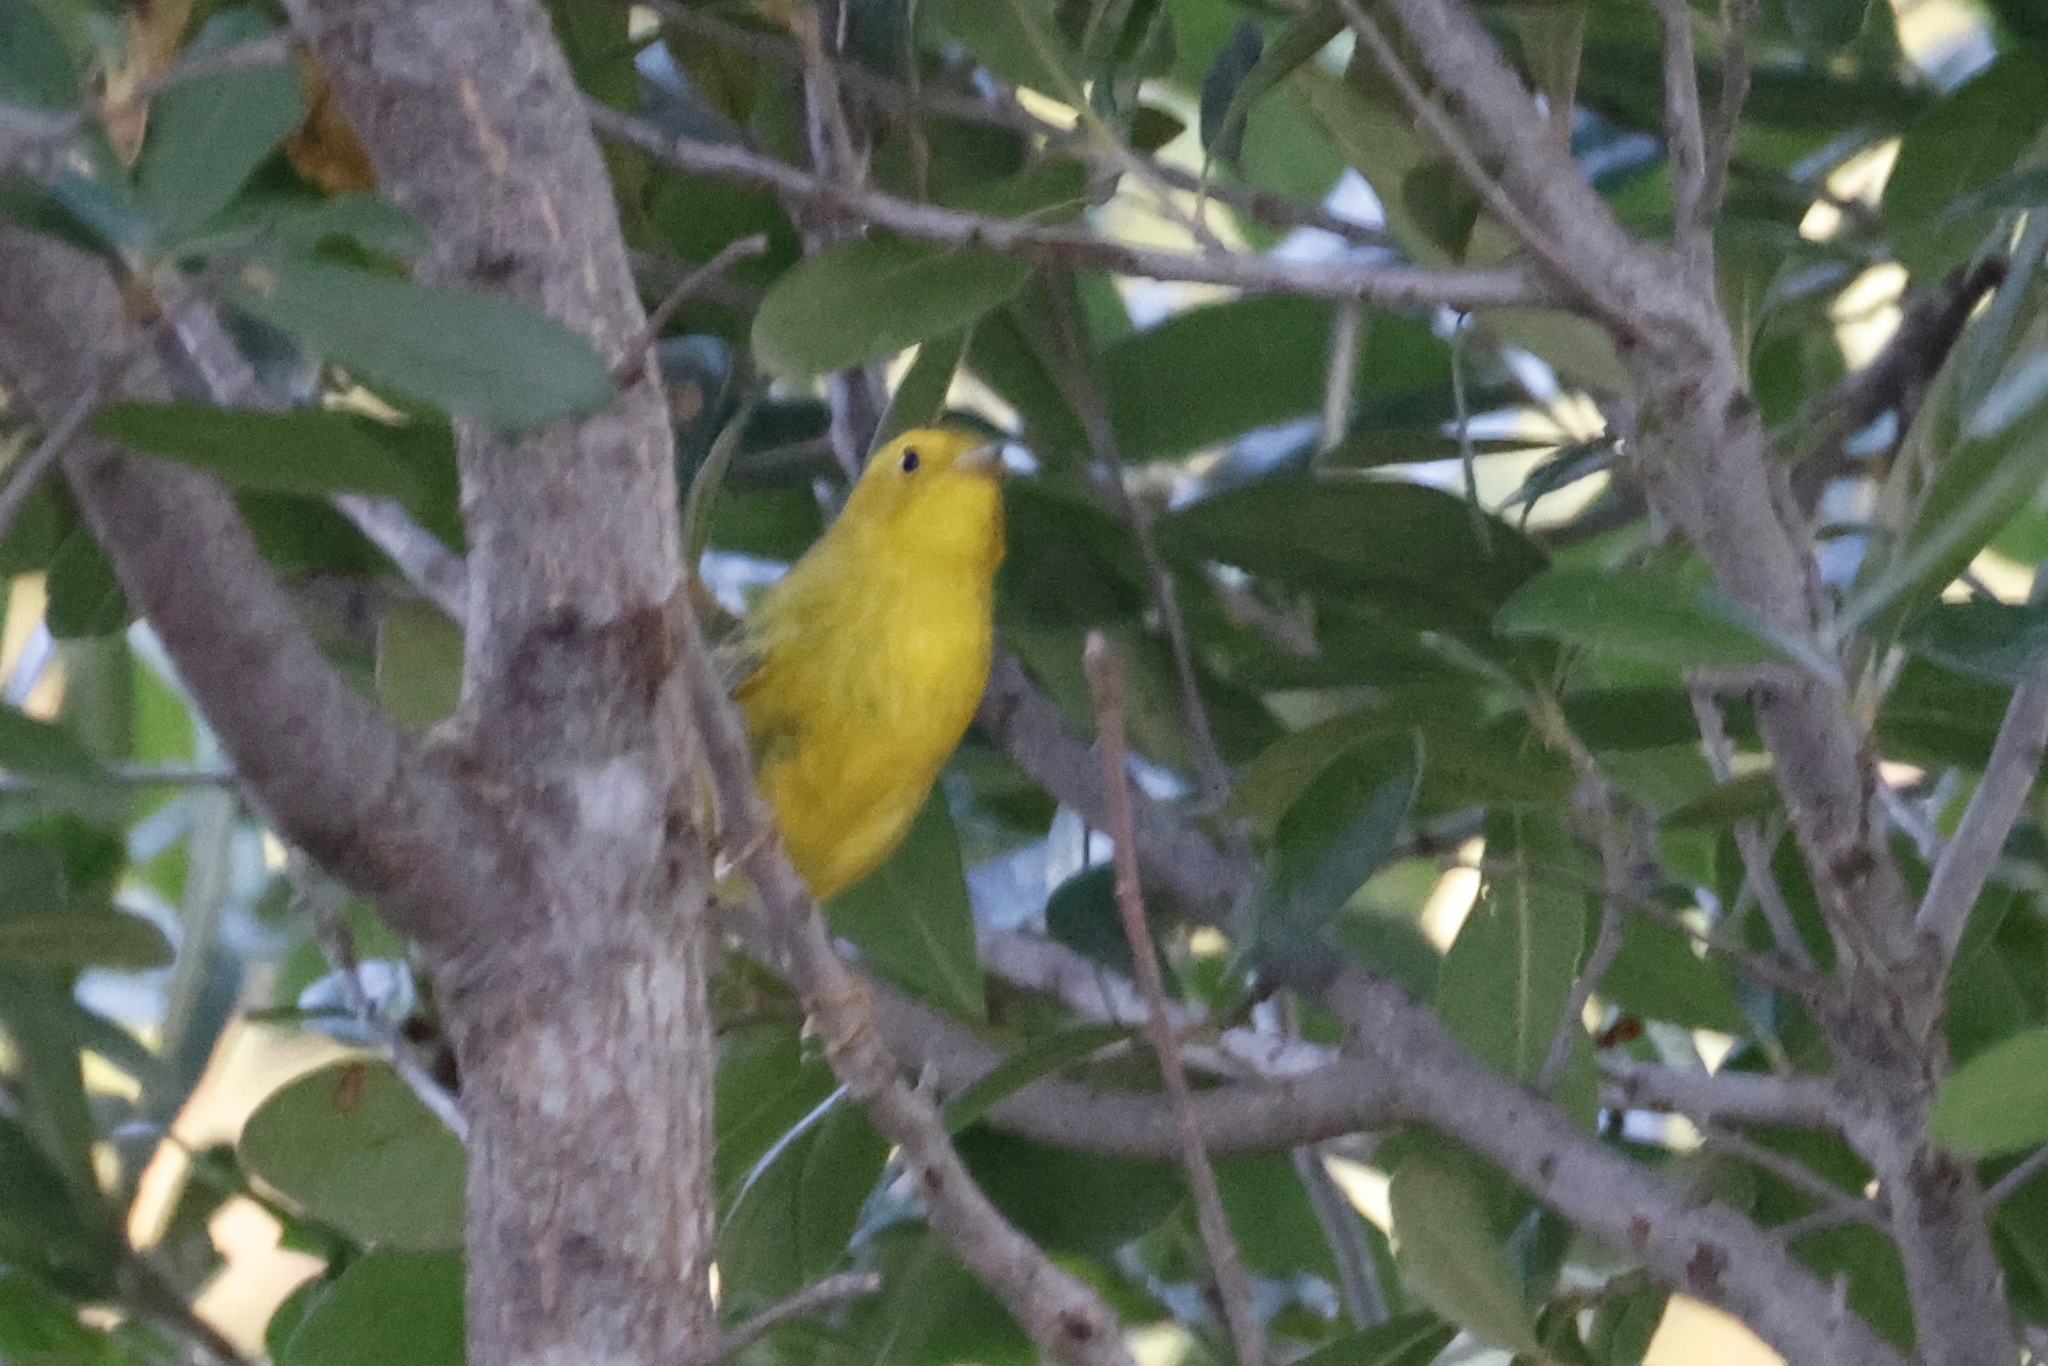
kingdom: Animalia
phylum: Chordata
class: Aves
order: Passeriformes
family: Parulidae
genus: Setophaga
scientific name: Setophaga petechia
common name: Yellow warbler
